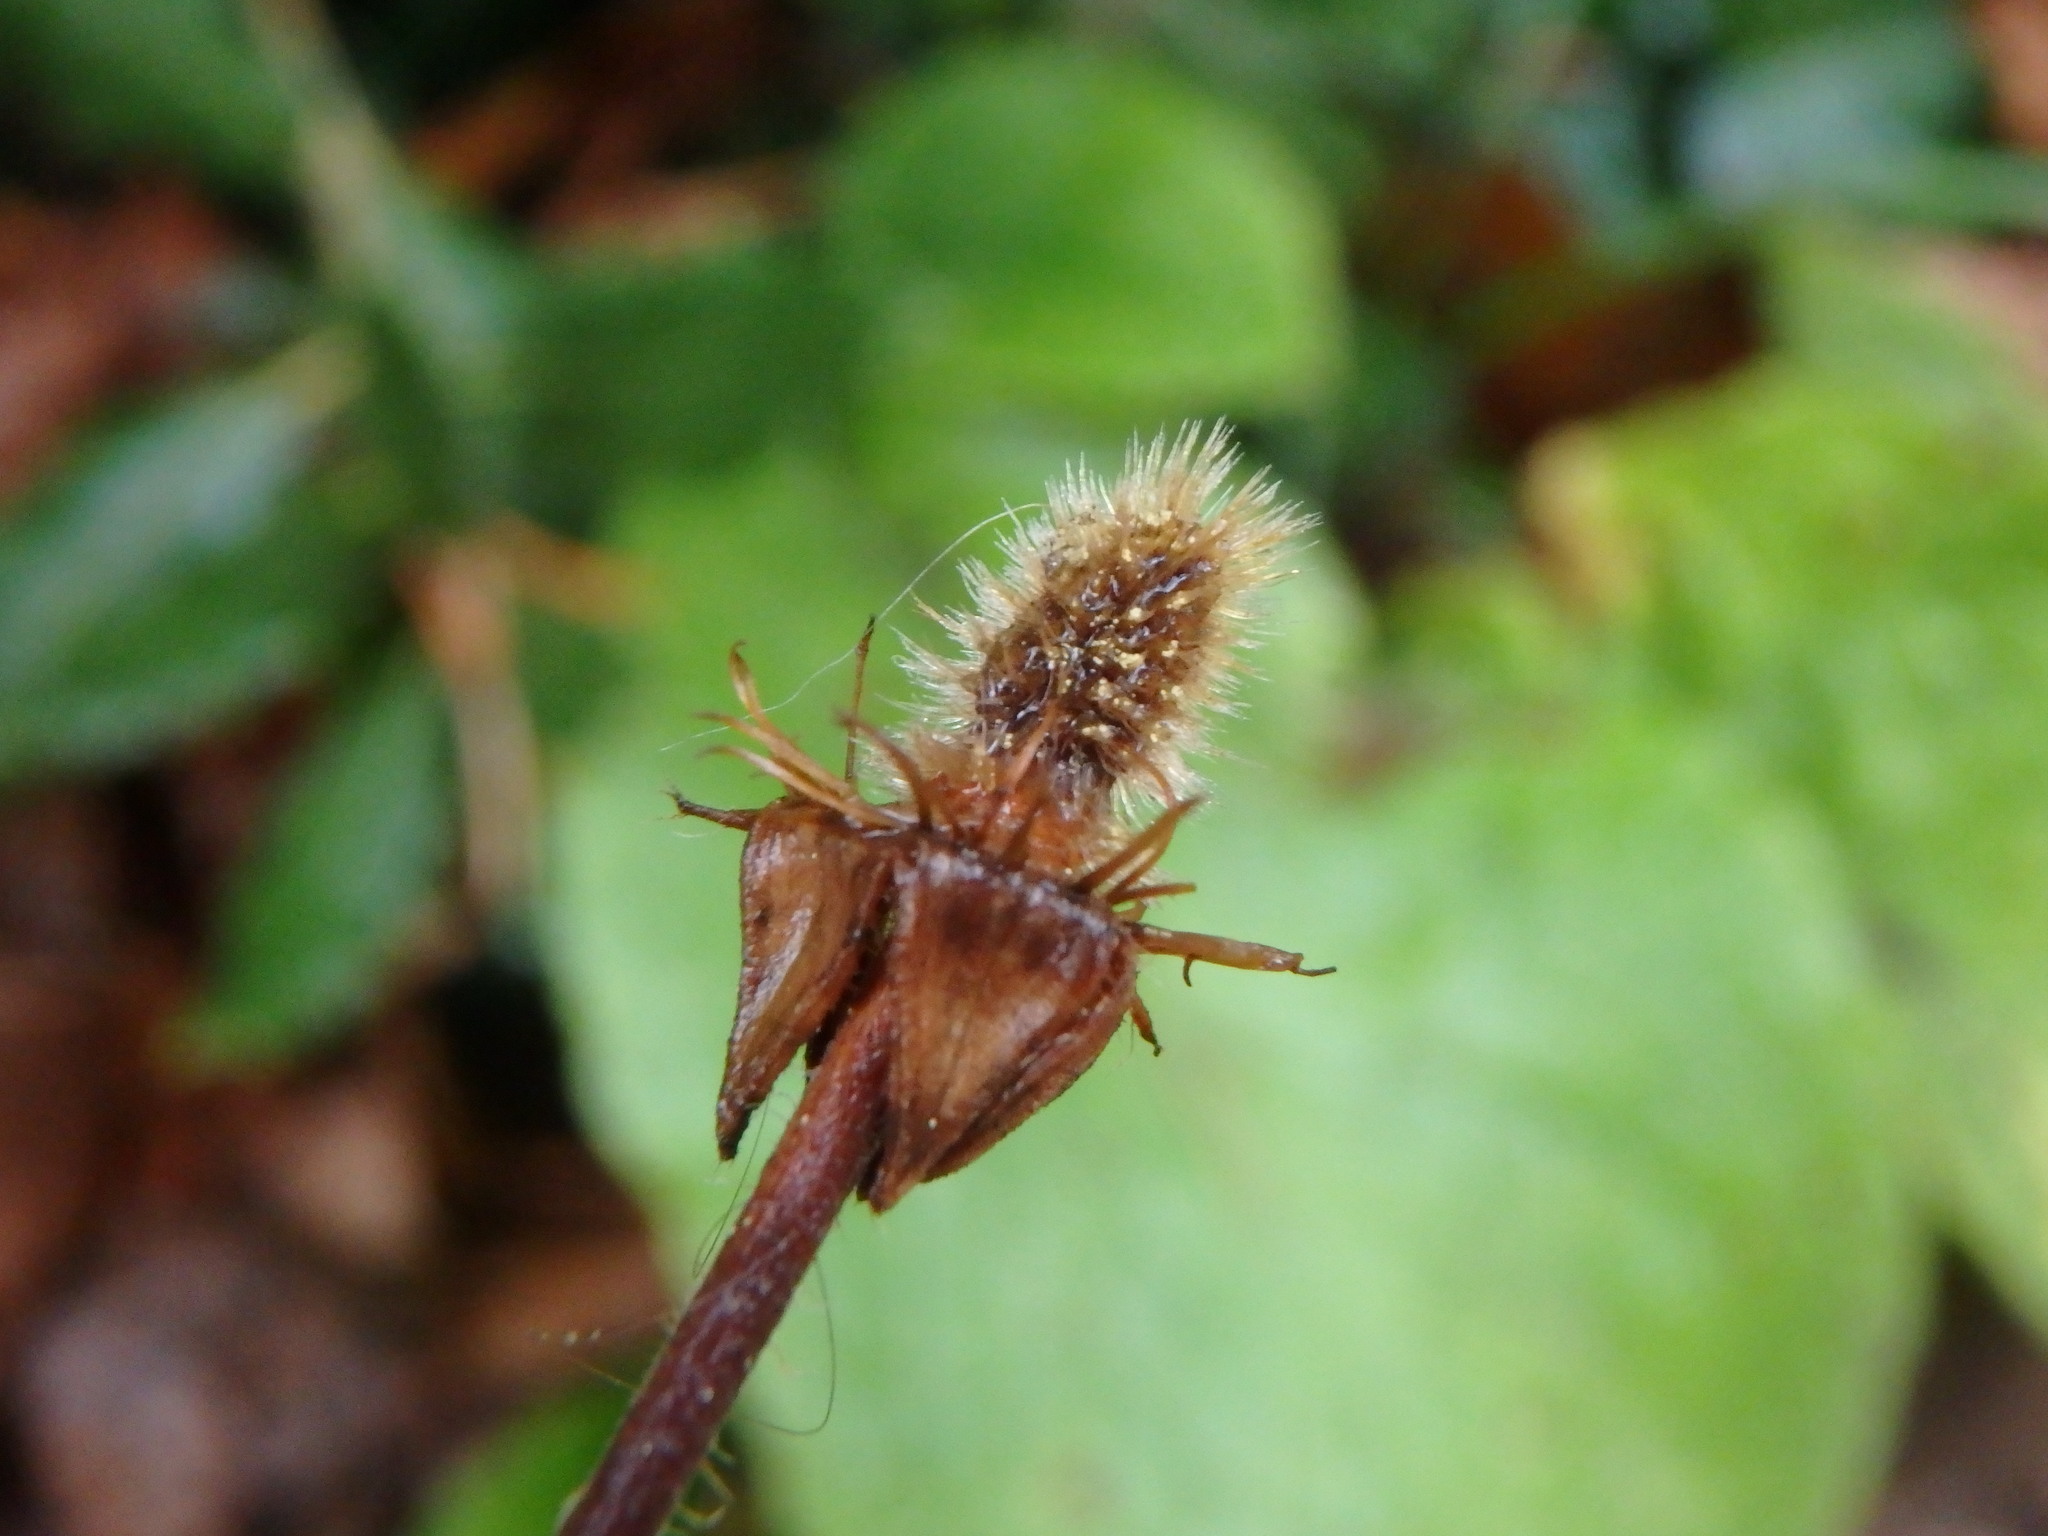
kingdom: Plantae
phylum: Tracheophyta
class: Magnoliopsida
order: Rosales
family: Rosaceae
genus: Geum
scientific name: Geum urbanum
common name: Wood avens
